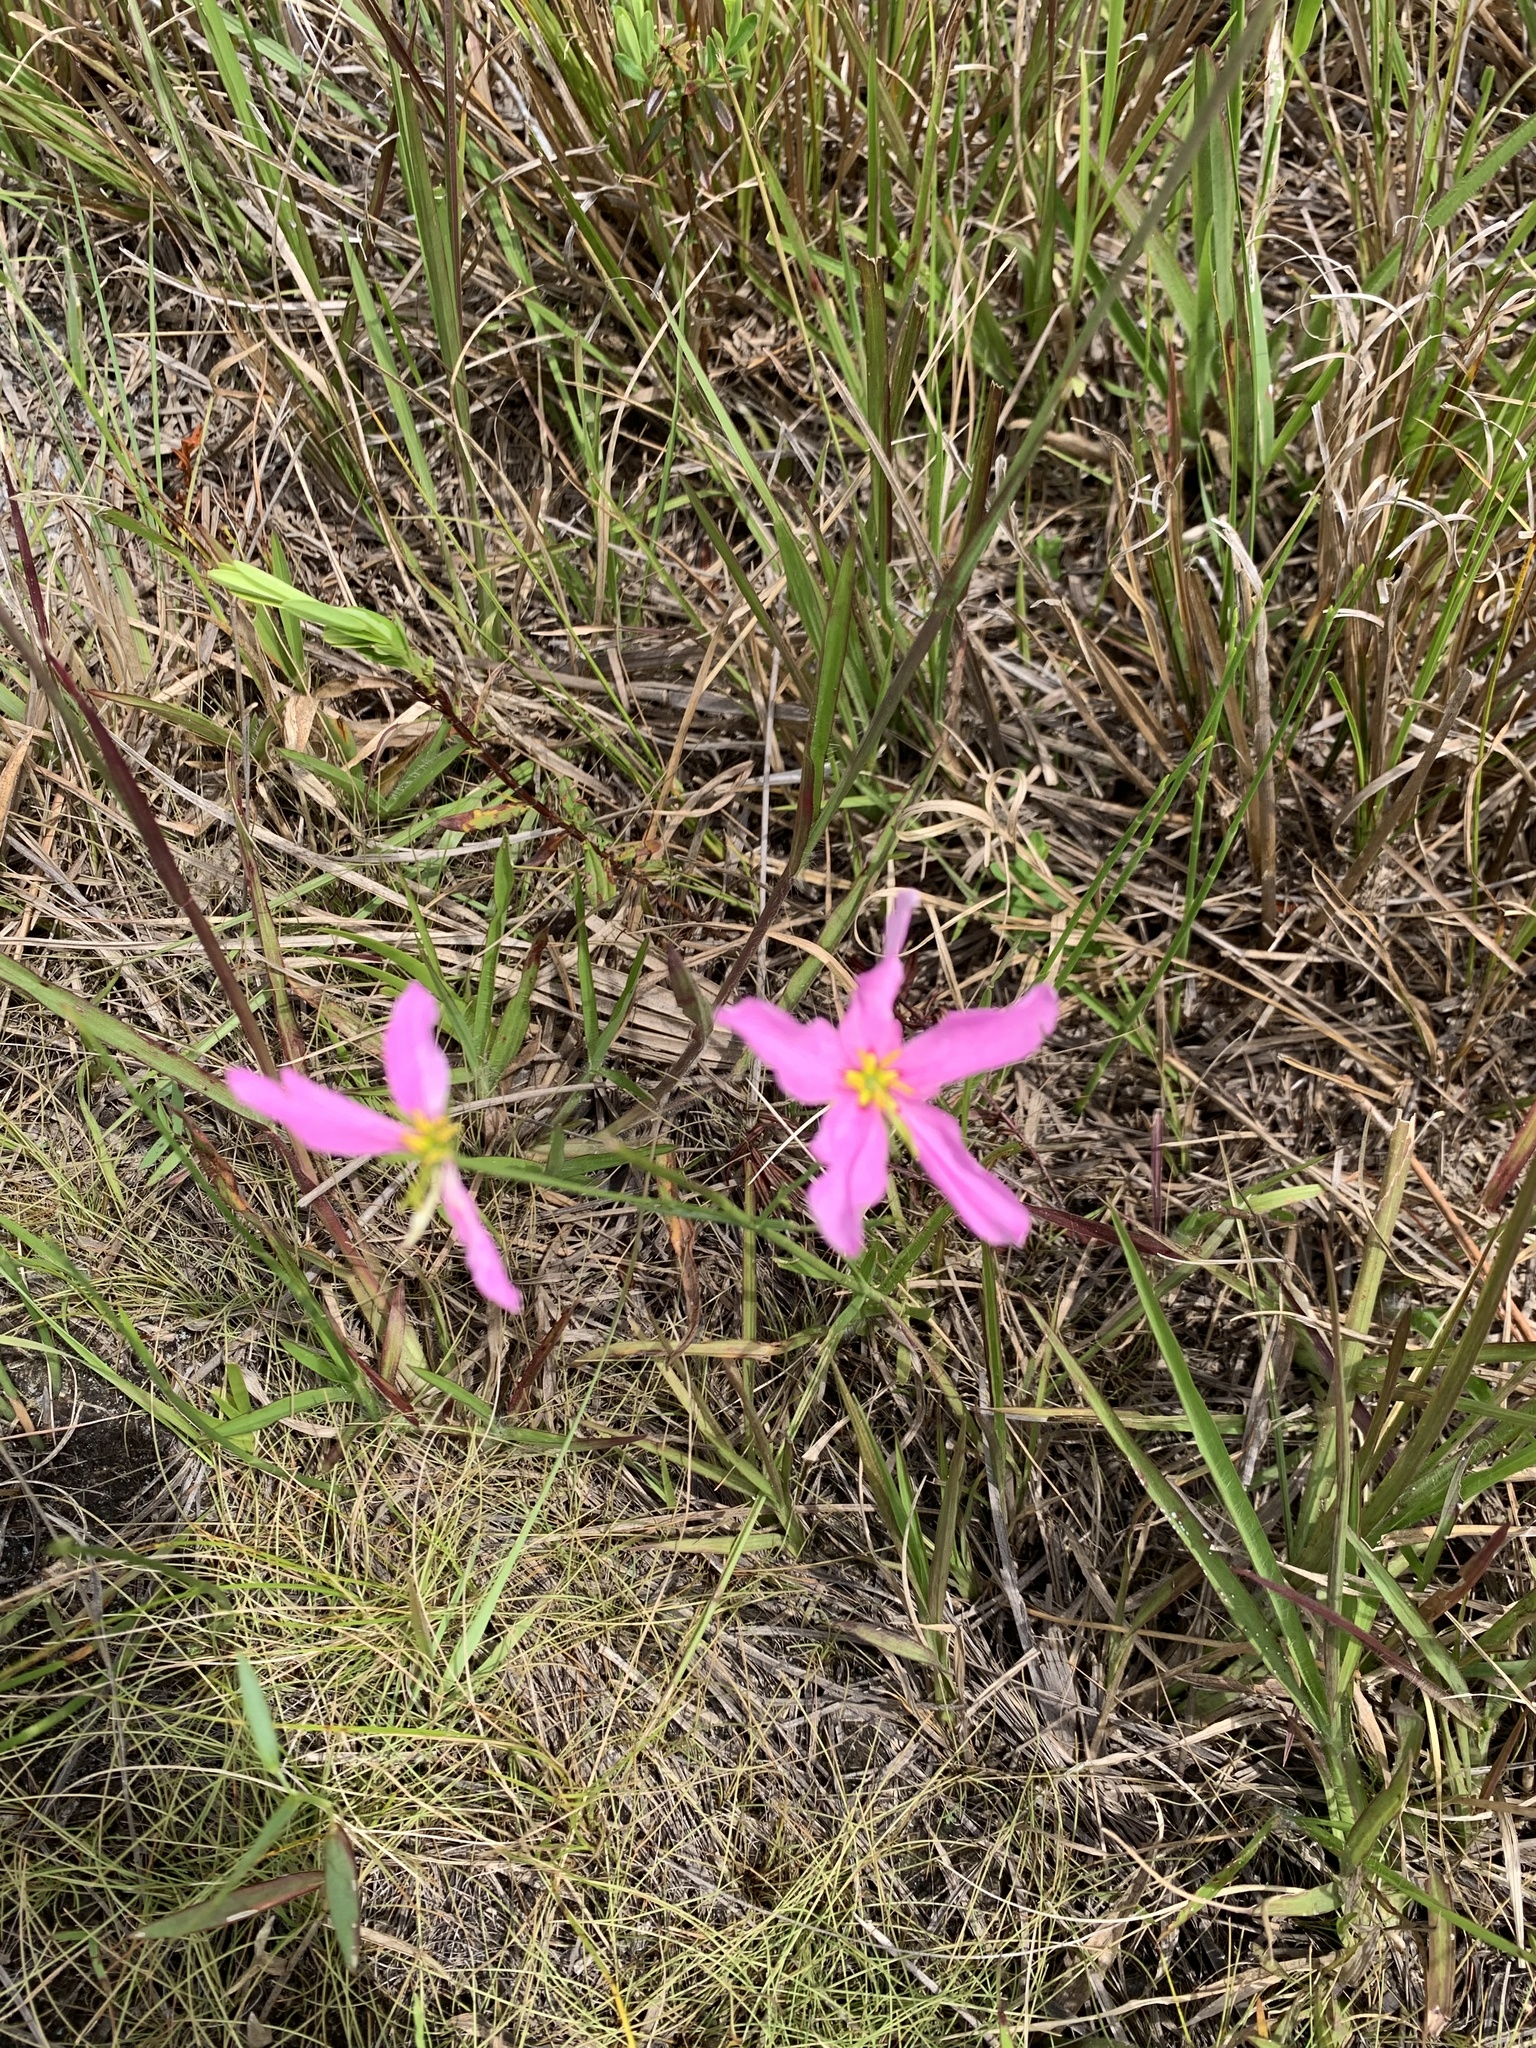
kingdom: Plantae
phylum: Tracheophyta
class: Magnoliopsida
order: Gentianales
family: Gentianaceae
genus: Sabatia
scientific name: Sabatia grandiflora
